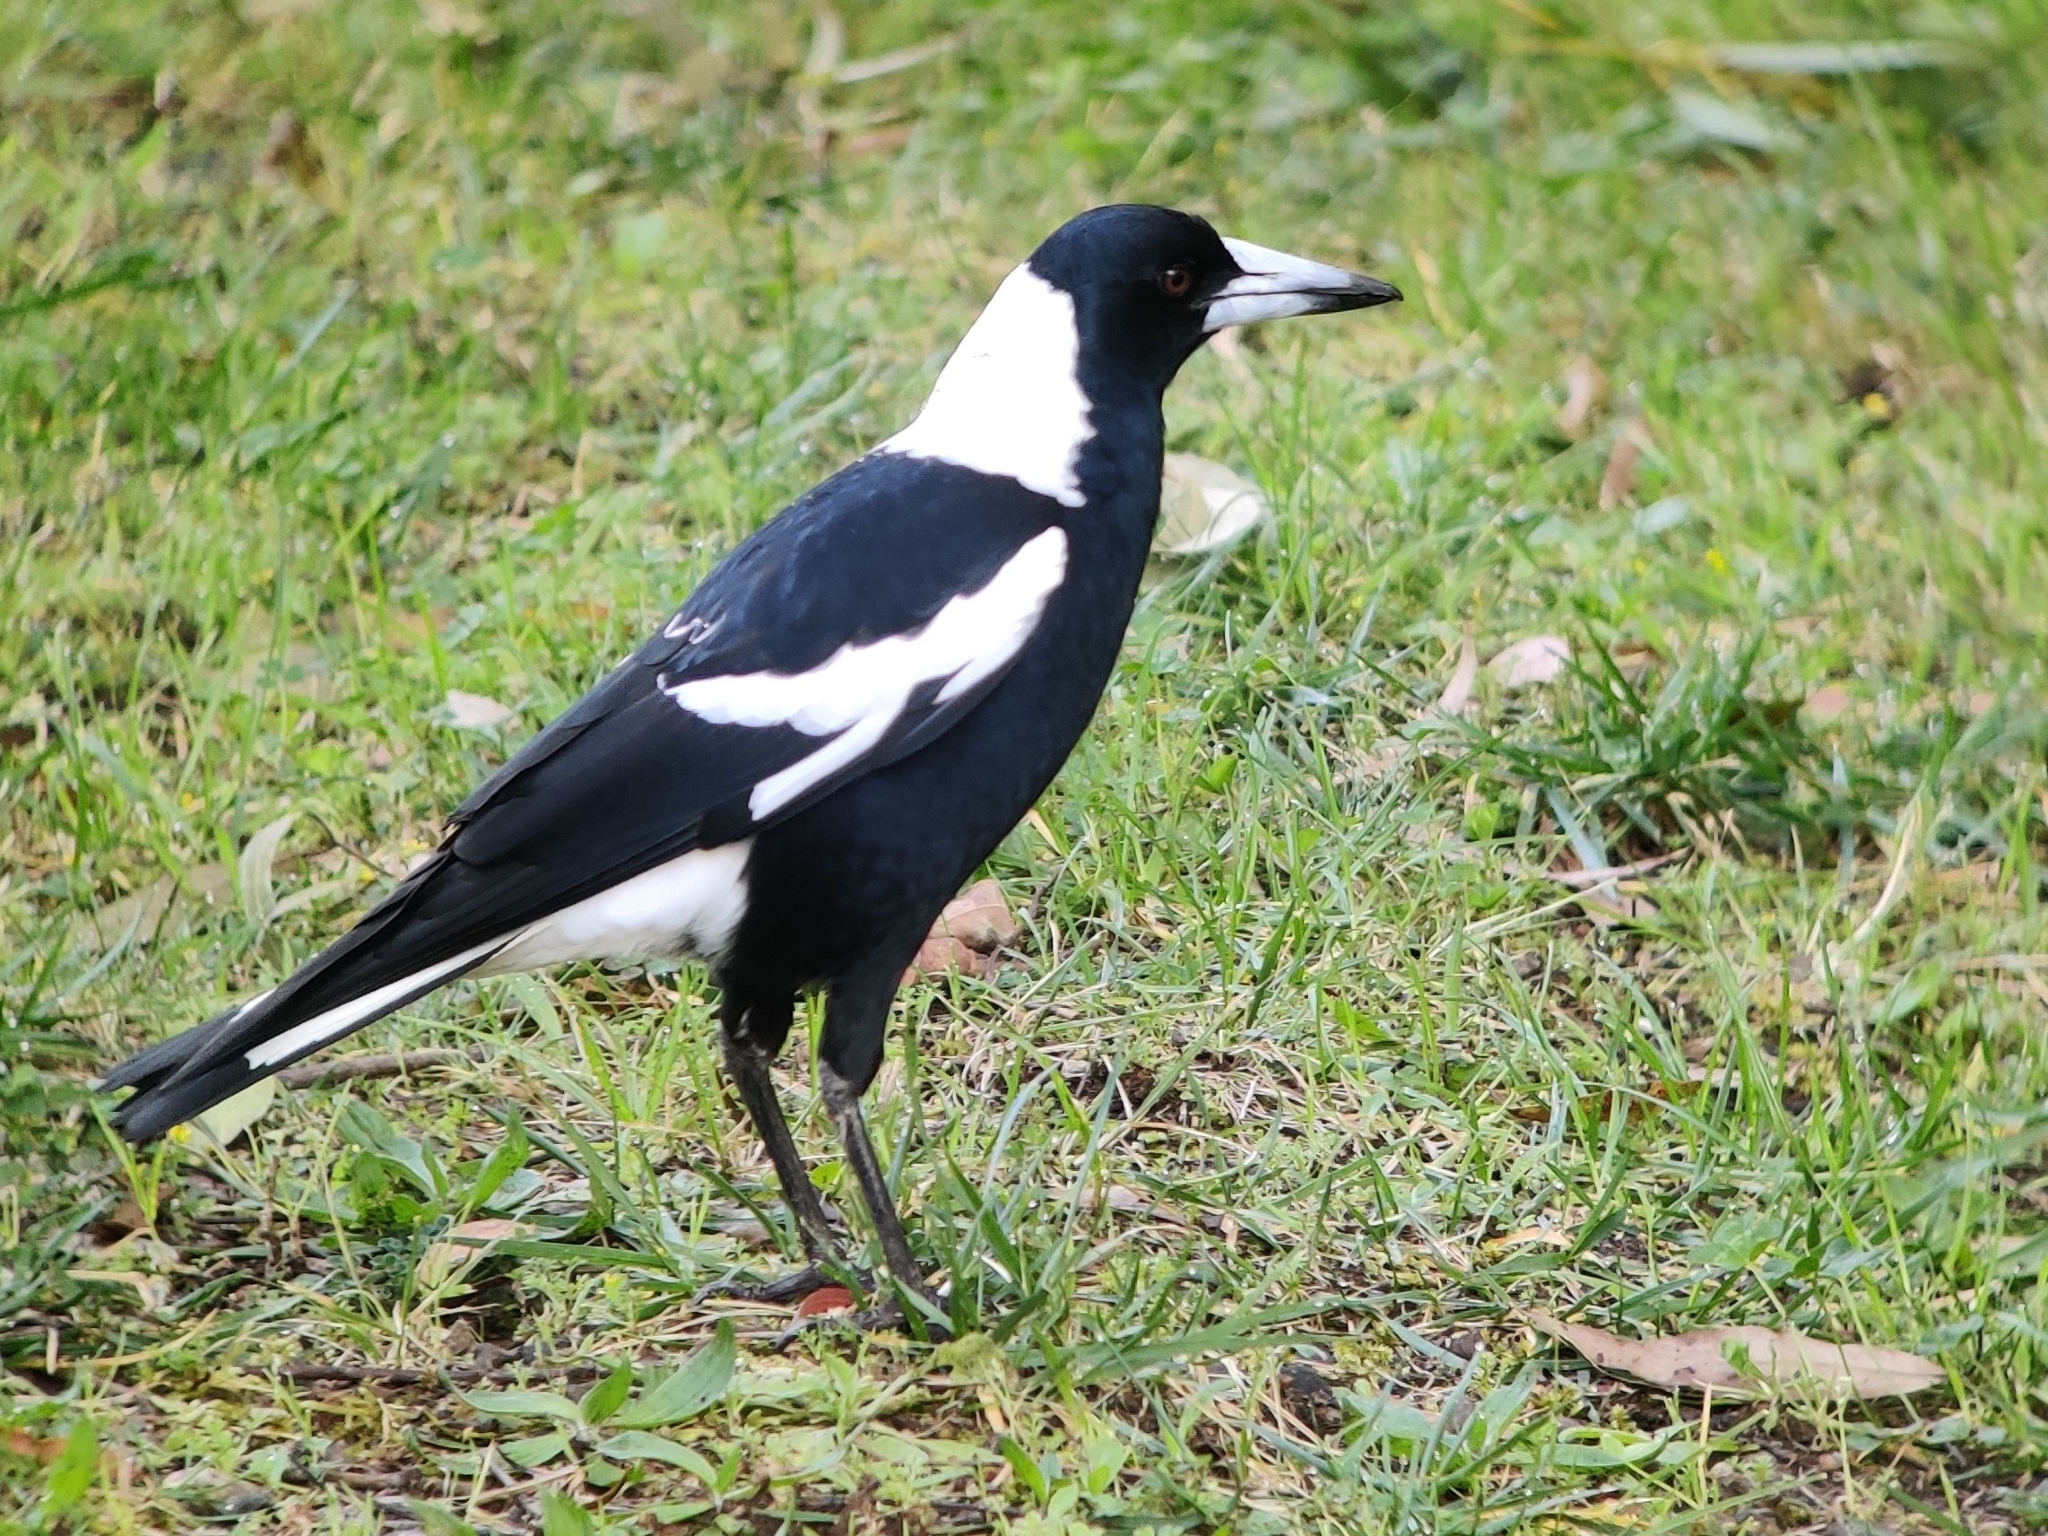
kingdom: Animalia
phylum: Chordata
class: Aves
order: Passeriformes
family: Cracticidae
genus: Gymnorhina
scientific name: Gymnorhina tibicen
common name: Australian magpie
